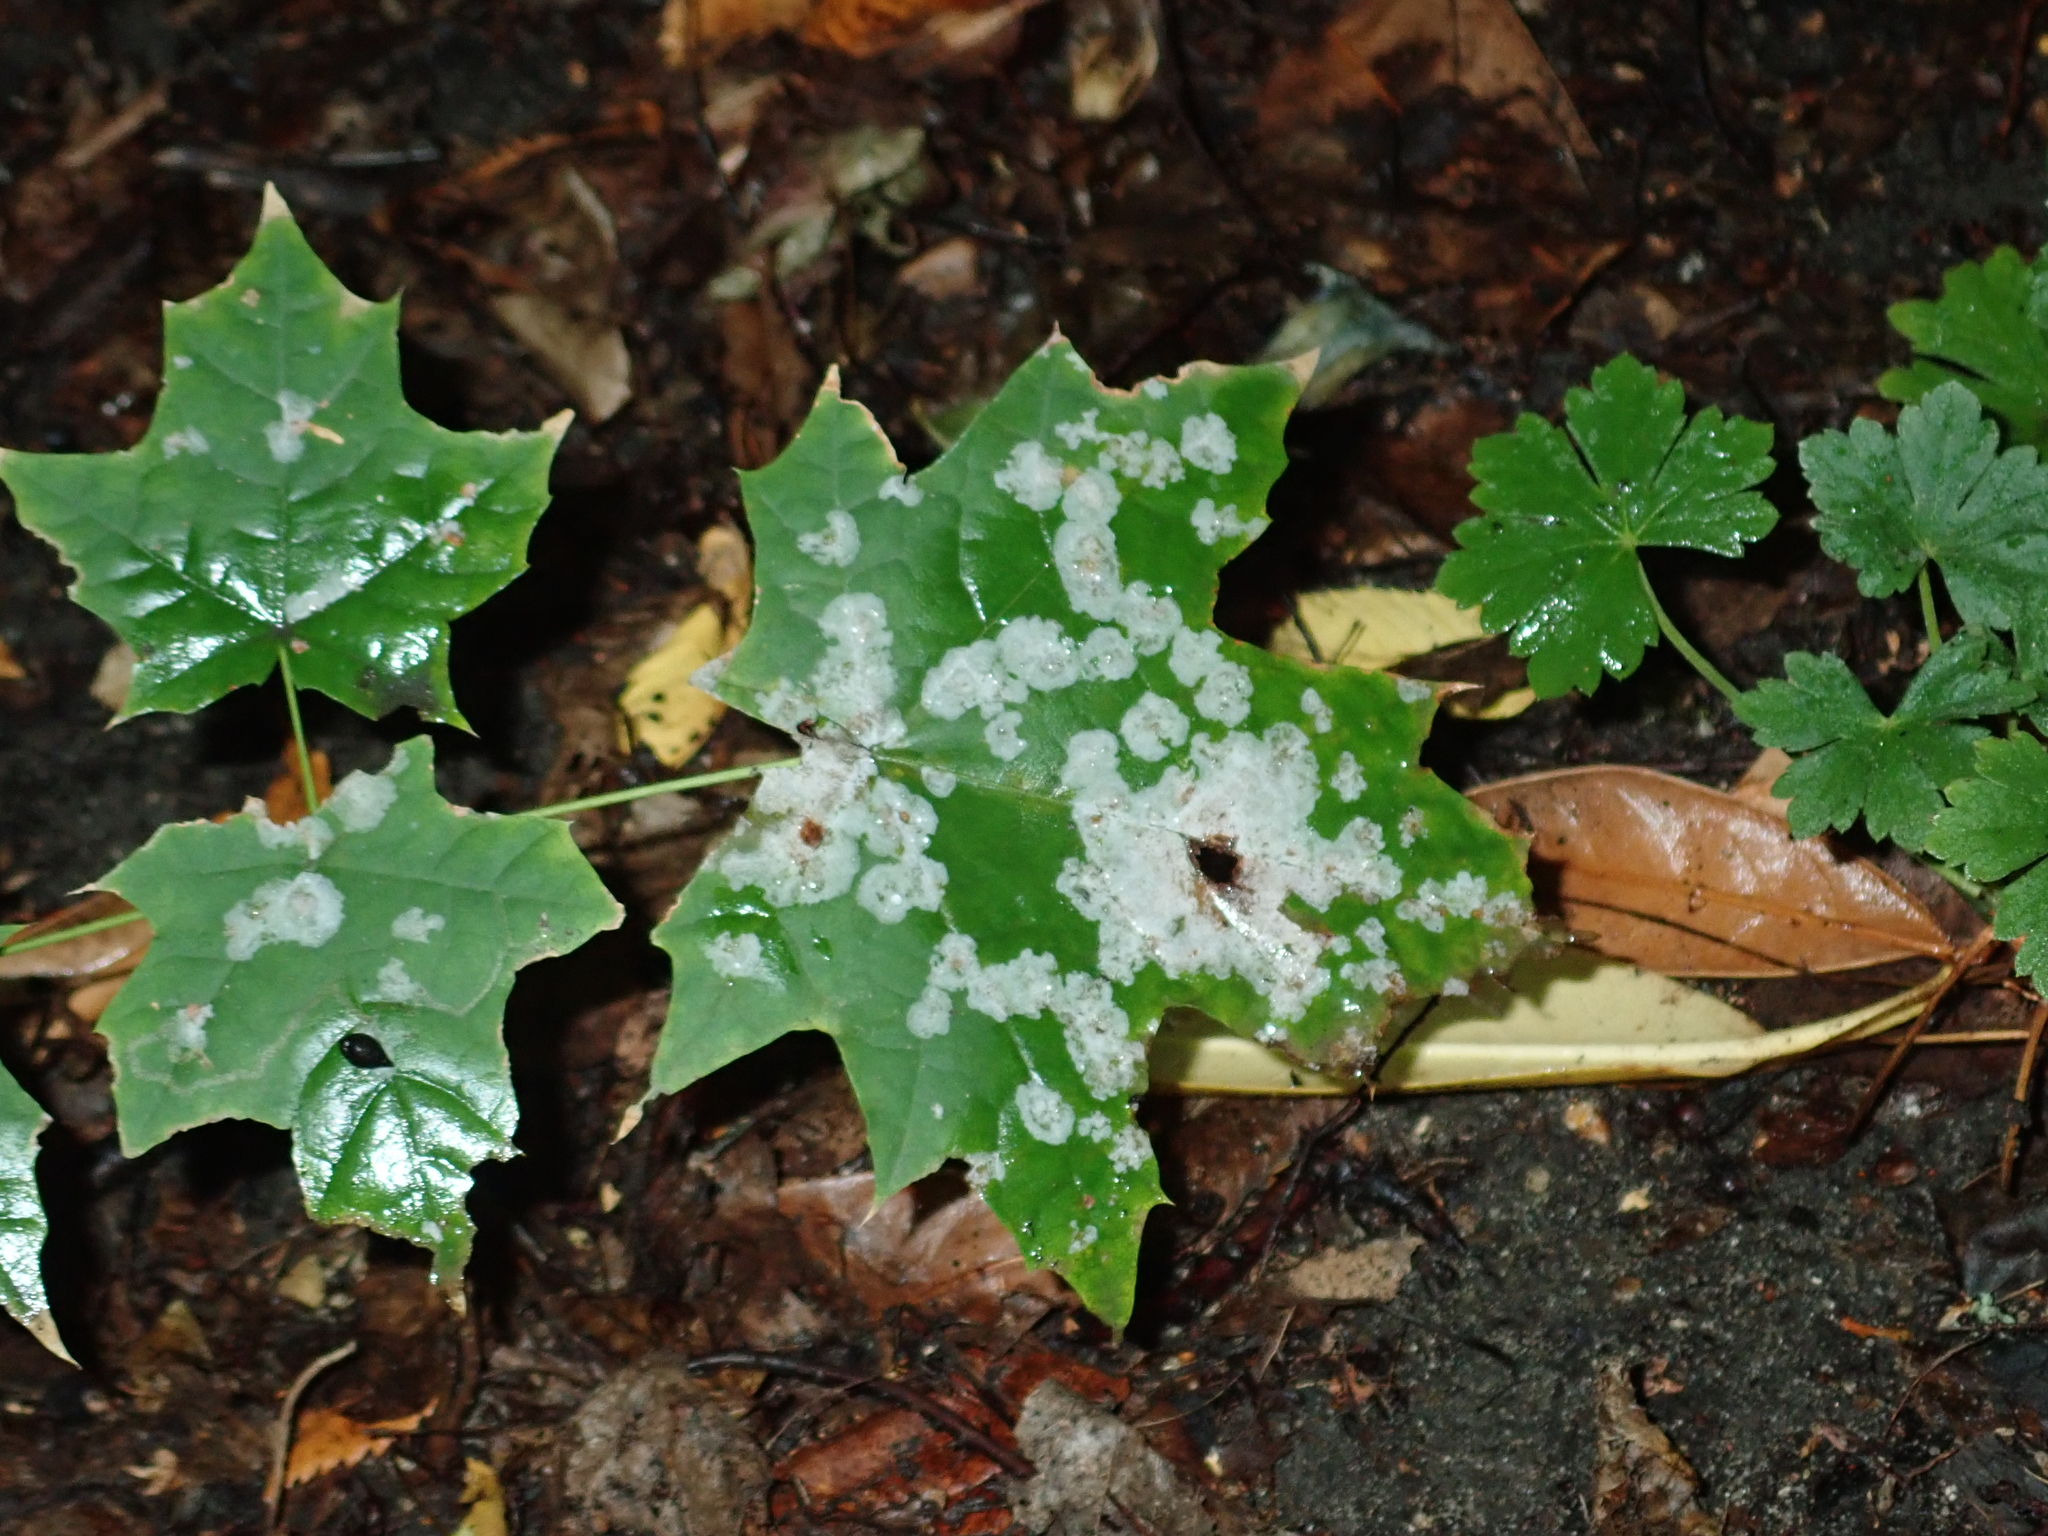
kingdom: Fungi
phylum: Ascomycota
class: Leotiomycetes
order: Helotiales
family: Erysiphaceae
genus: Sawadaea
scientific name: Sawadaea tulasnei
